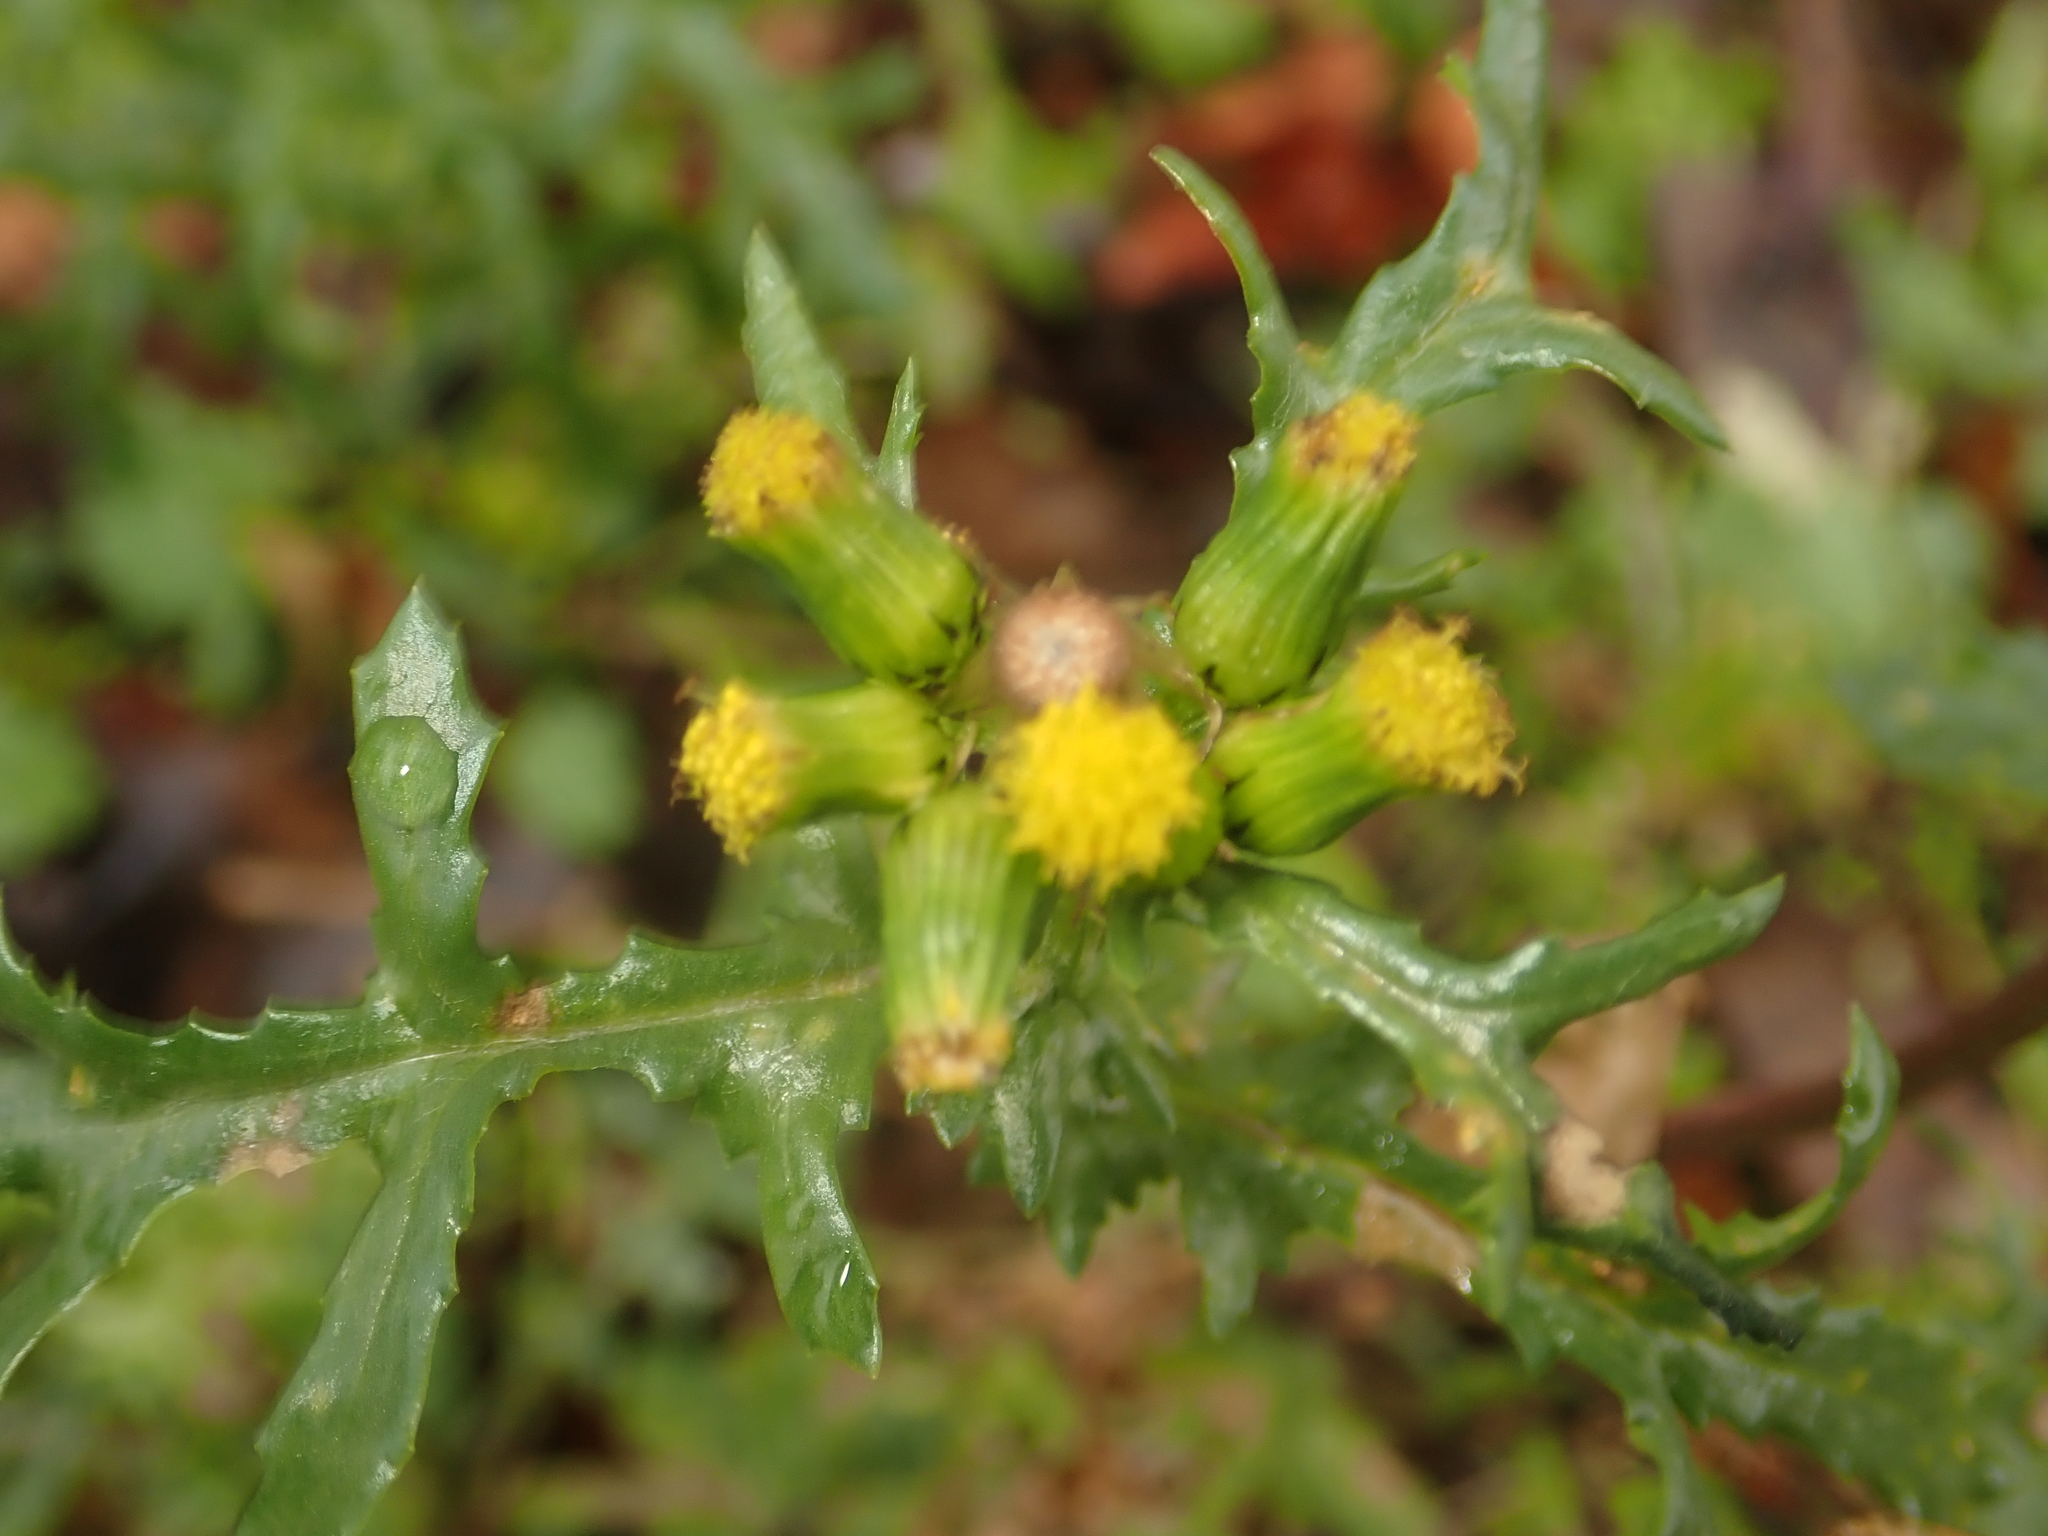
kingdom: Plantae
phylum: Tracheophyta
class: Magnoliopsida
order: Asterales
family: Asteraceae
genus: Senecio
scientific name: Senecio vulgaris
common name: Old-man-in-the-spring
